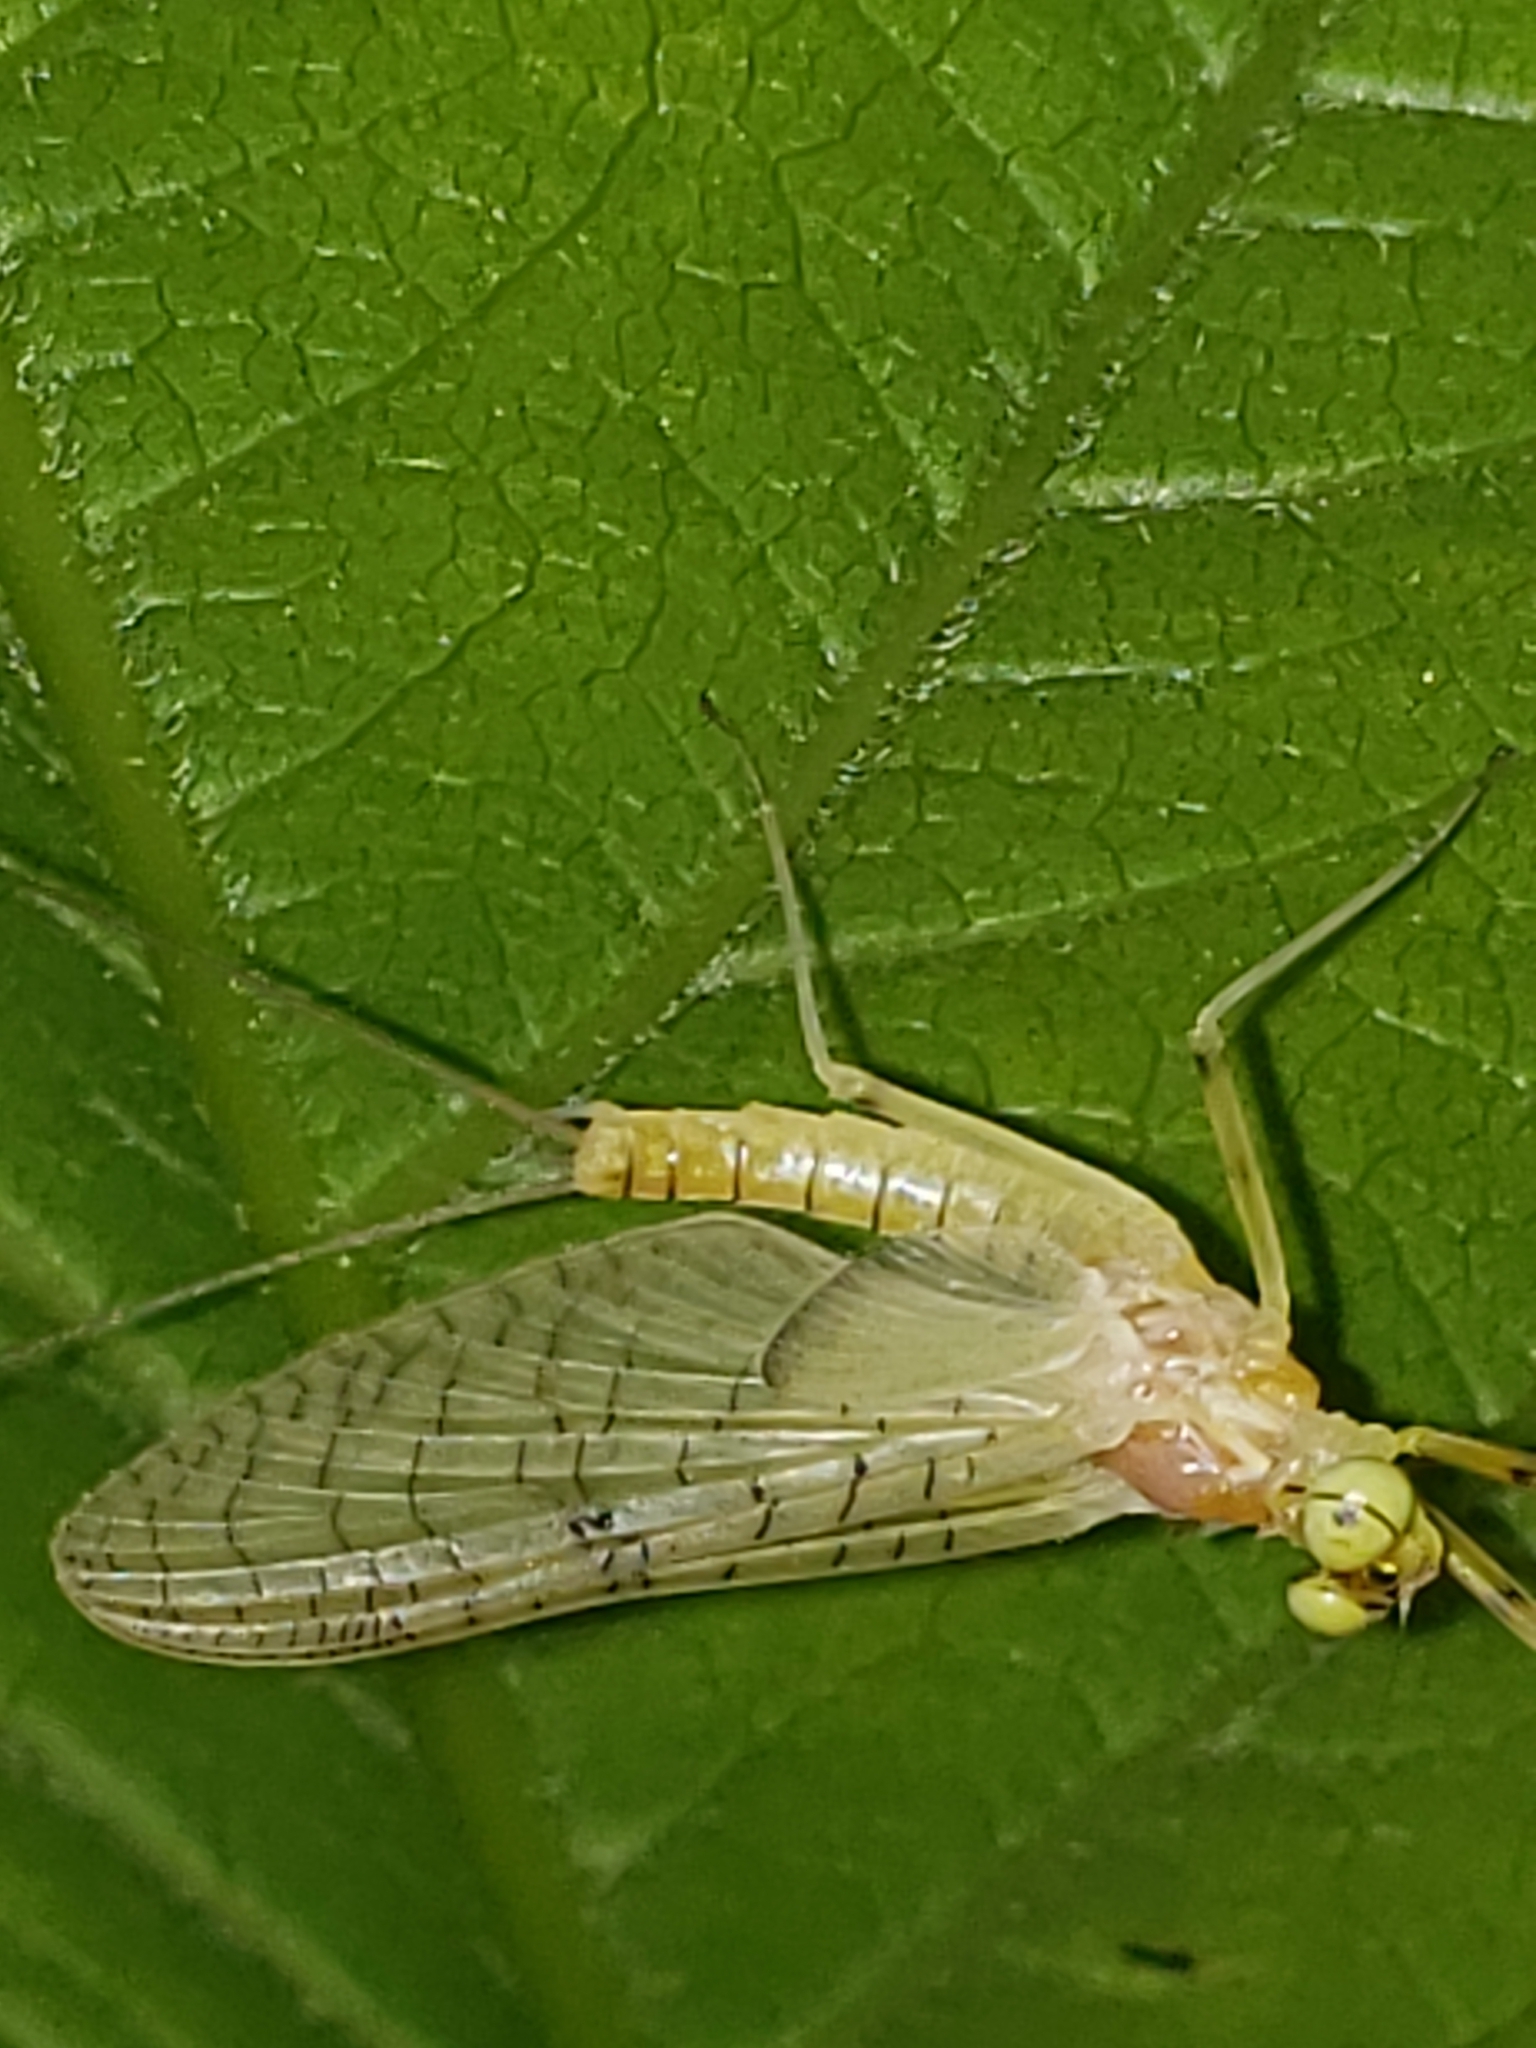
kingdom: Animalia
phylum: Arthropoda
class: Insecta
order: Ephemeroptera
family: Heptageniidae
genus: Stenacron
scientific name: Stenacron carolina
